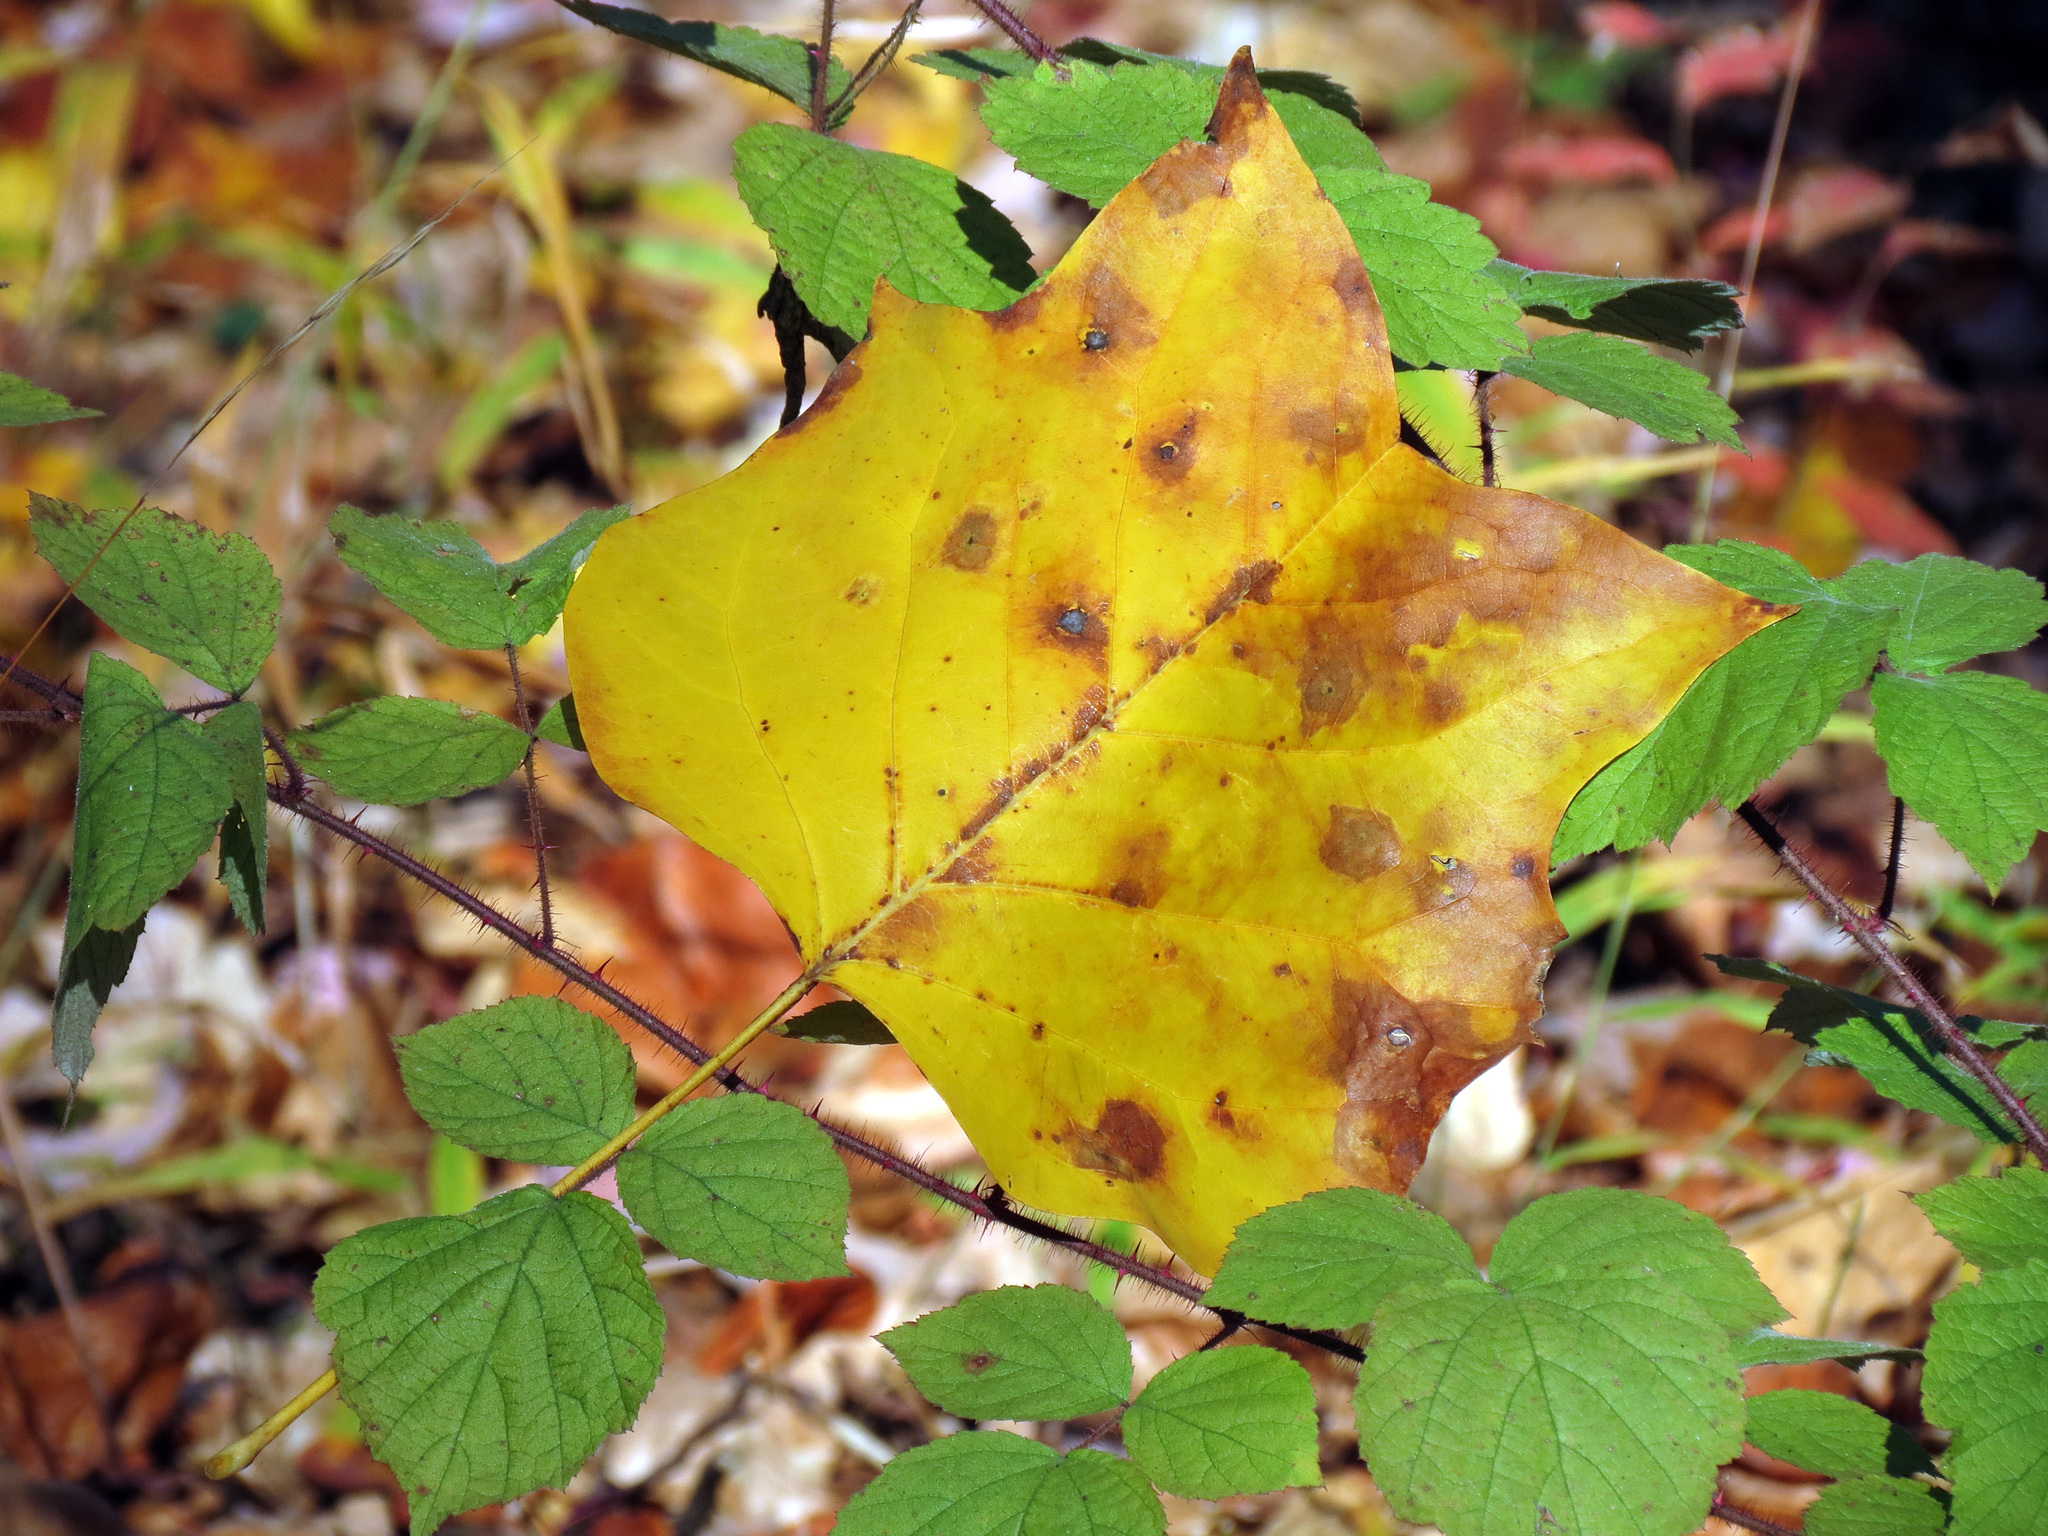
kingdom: Plantae
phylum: Tracheophyta
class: Magnoliopsida
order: Magnoliales
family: Magnoliaceae
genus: Liriodendron
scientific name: Liriodendron tulipifera
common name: Tulip tree
